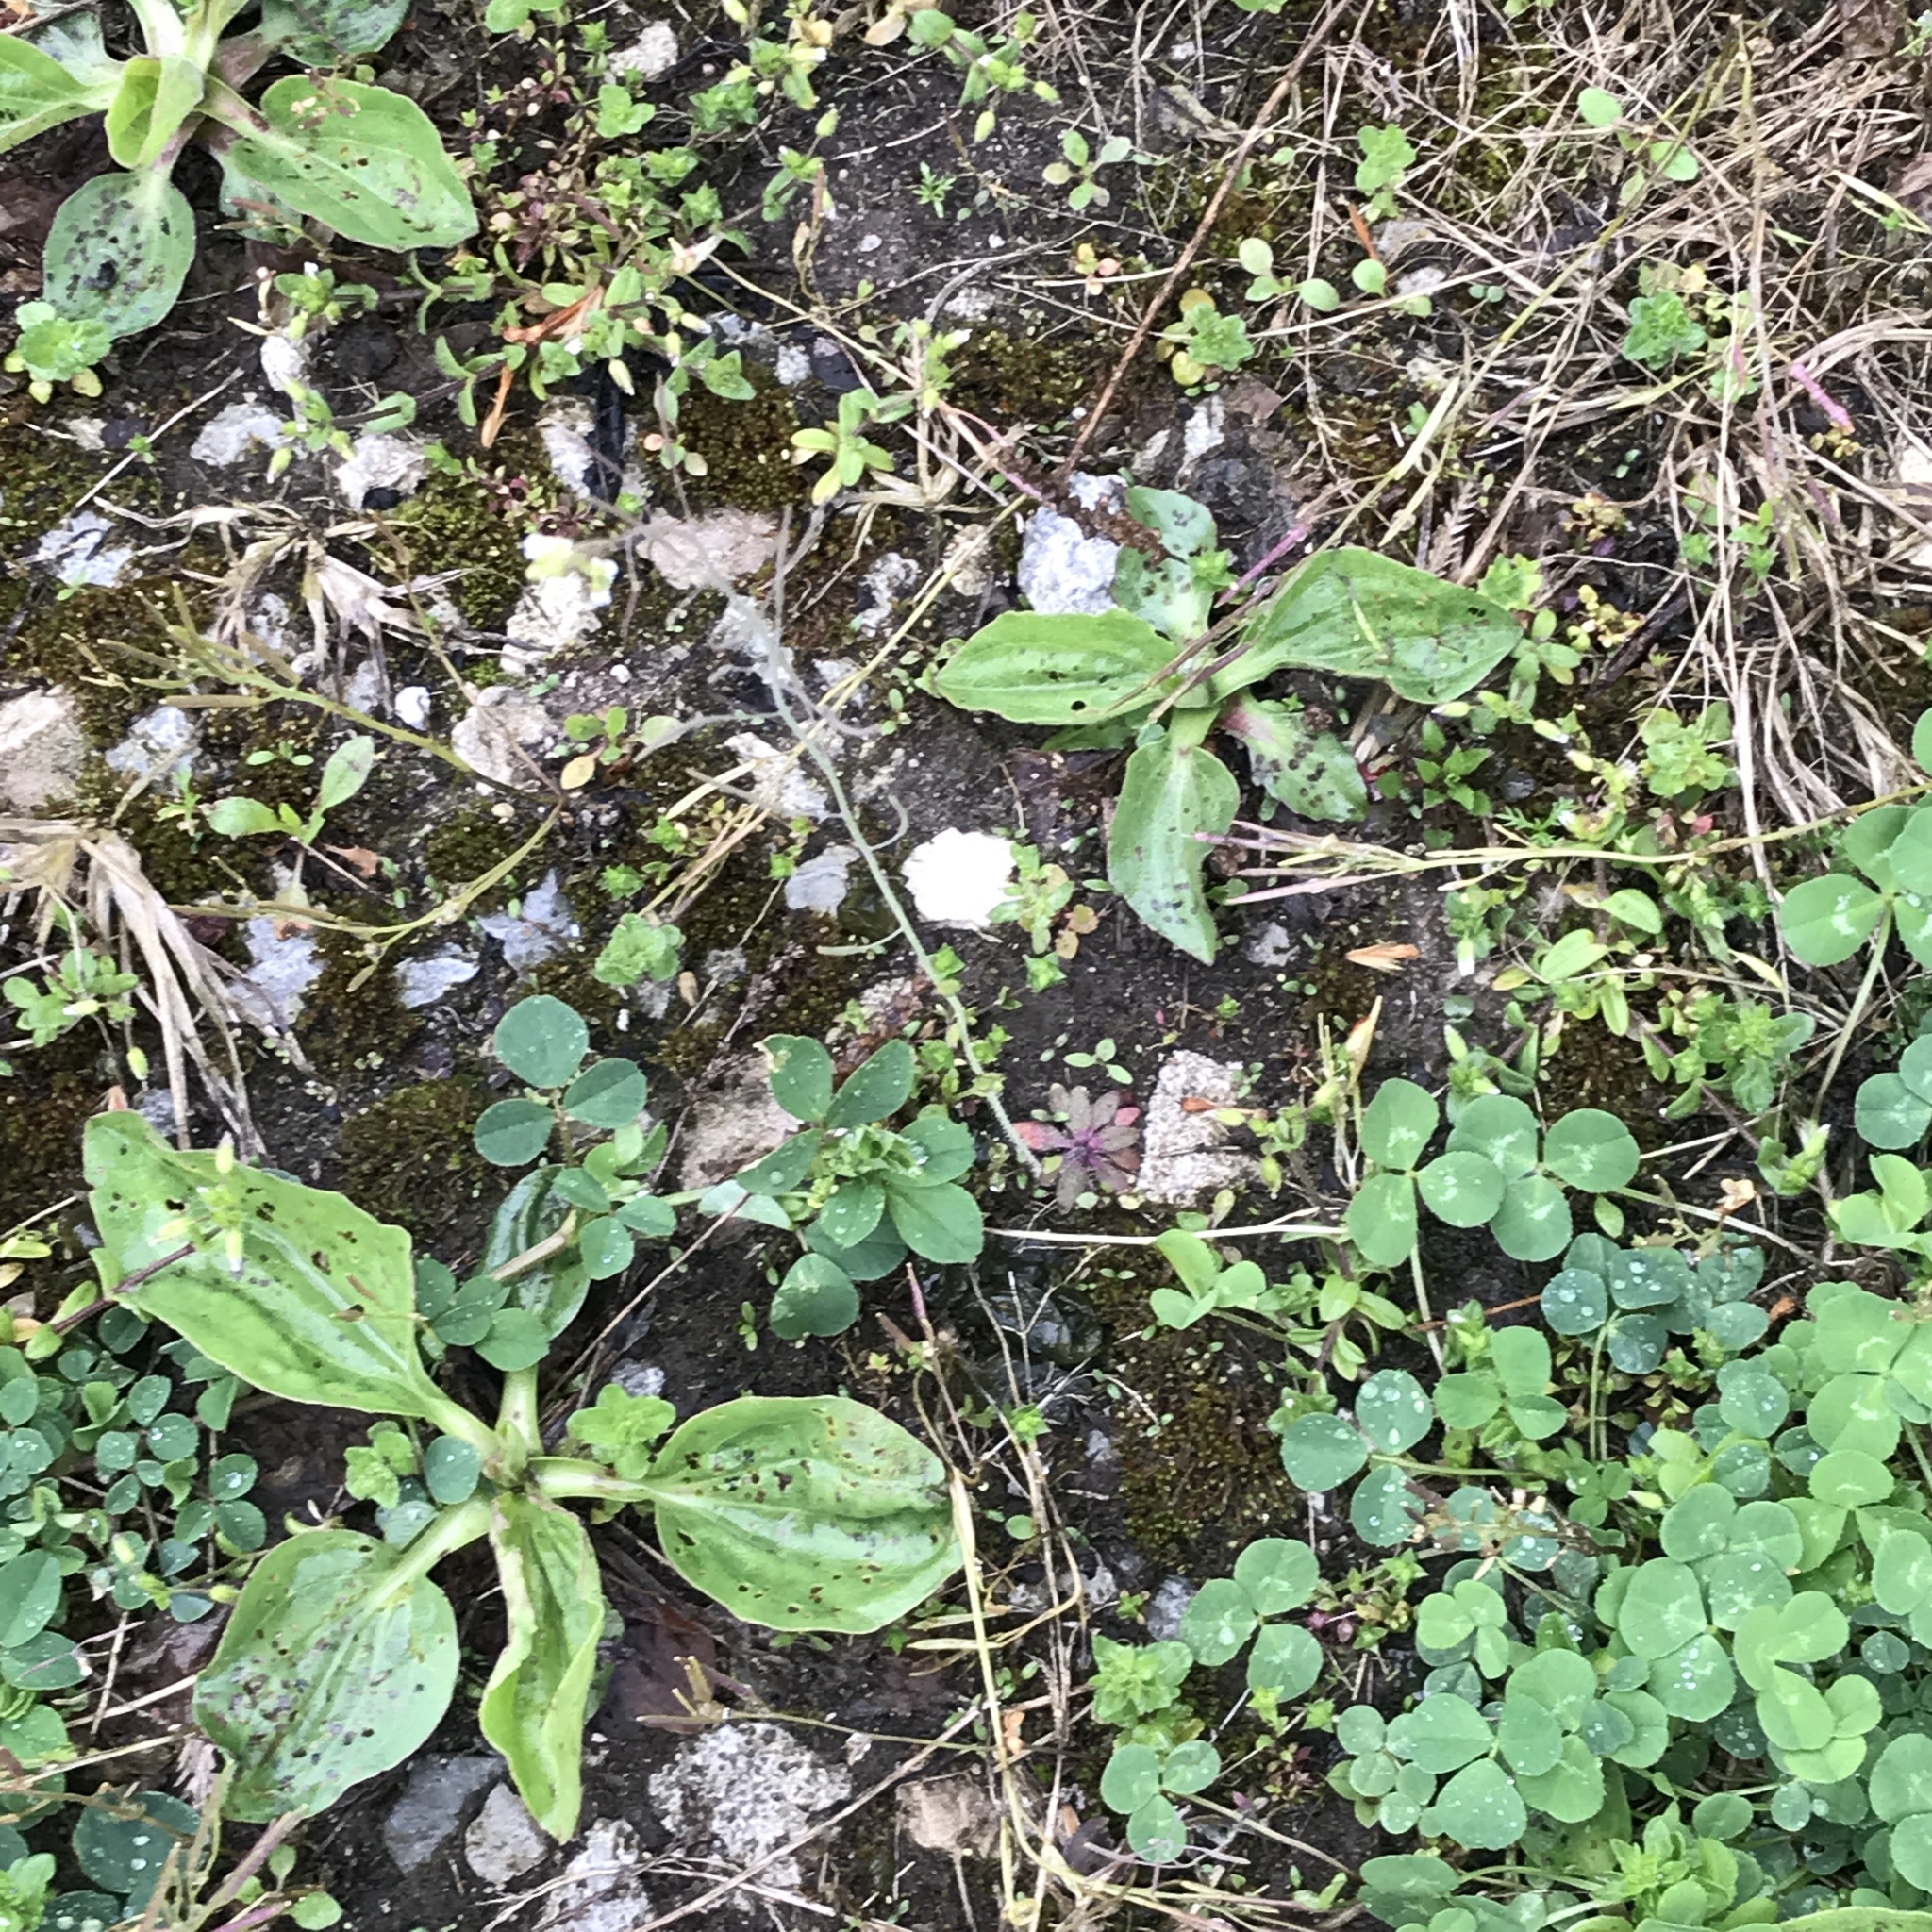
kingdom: Plantae
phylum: Tracheophyta
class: Magnoliopsida
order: Lamiales
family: Plantaginaceae
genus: Plantago
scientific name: Plantago major
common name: Common plantain
